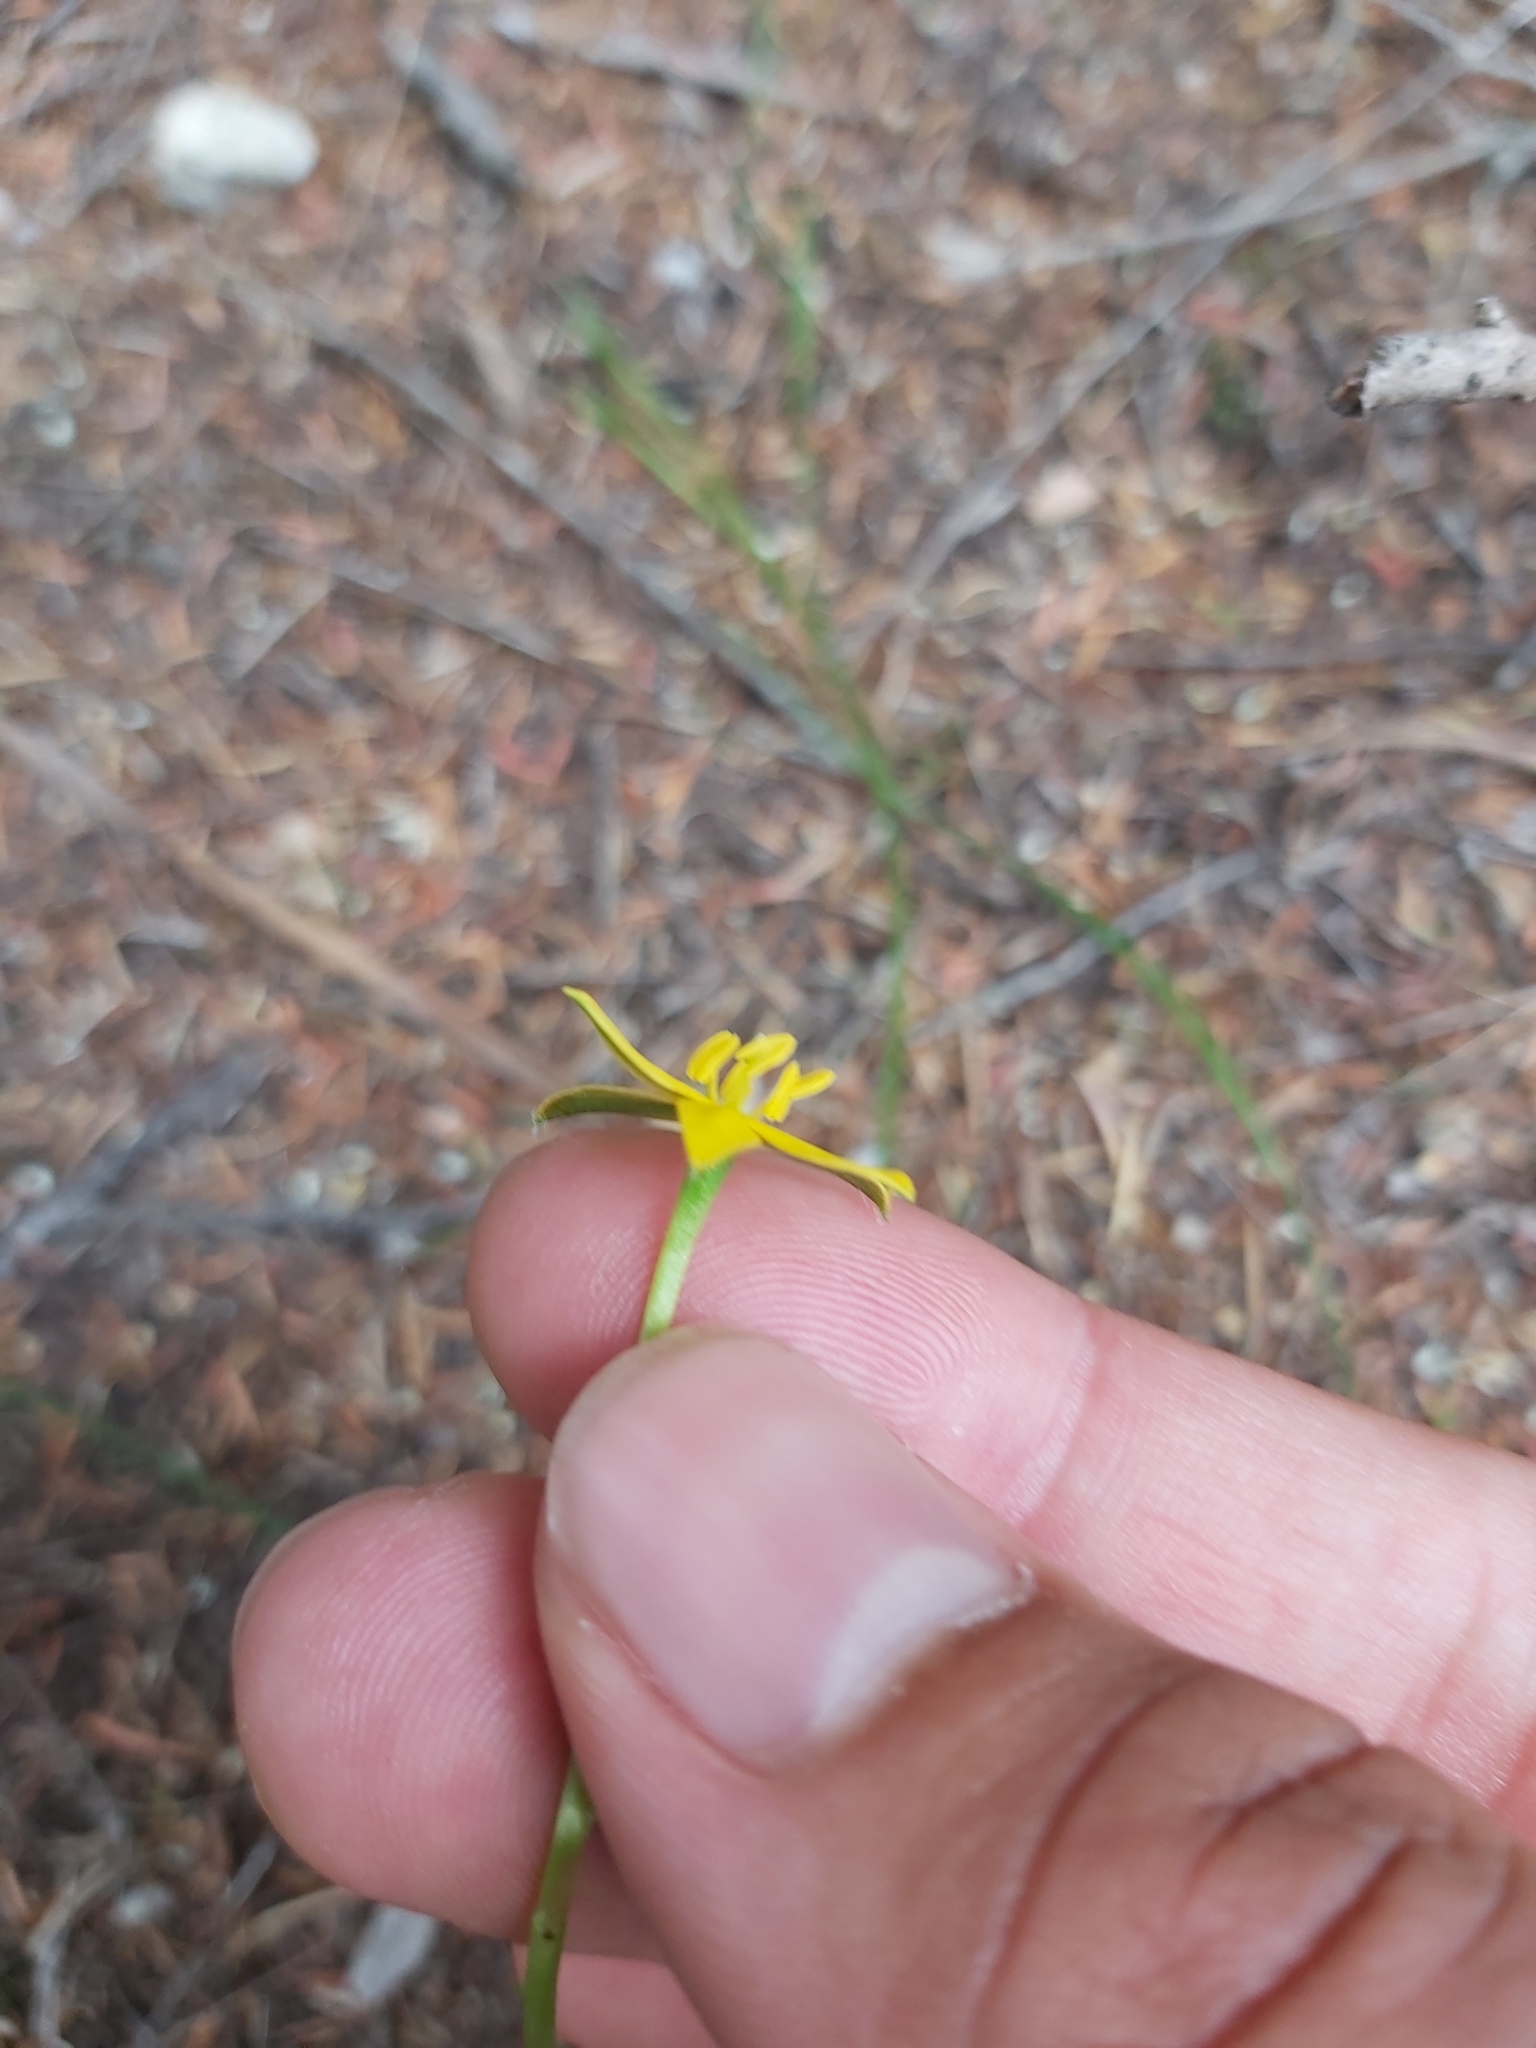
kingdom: Plantae
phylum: Tracheophyta
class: Liliopsida
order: Asparagales
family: Hypoxidaceae
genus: Hypoxis
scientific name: Hypoxis hygrometrica
